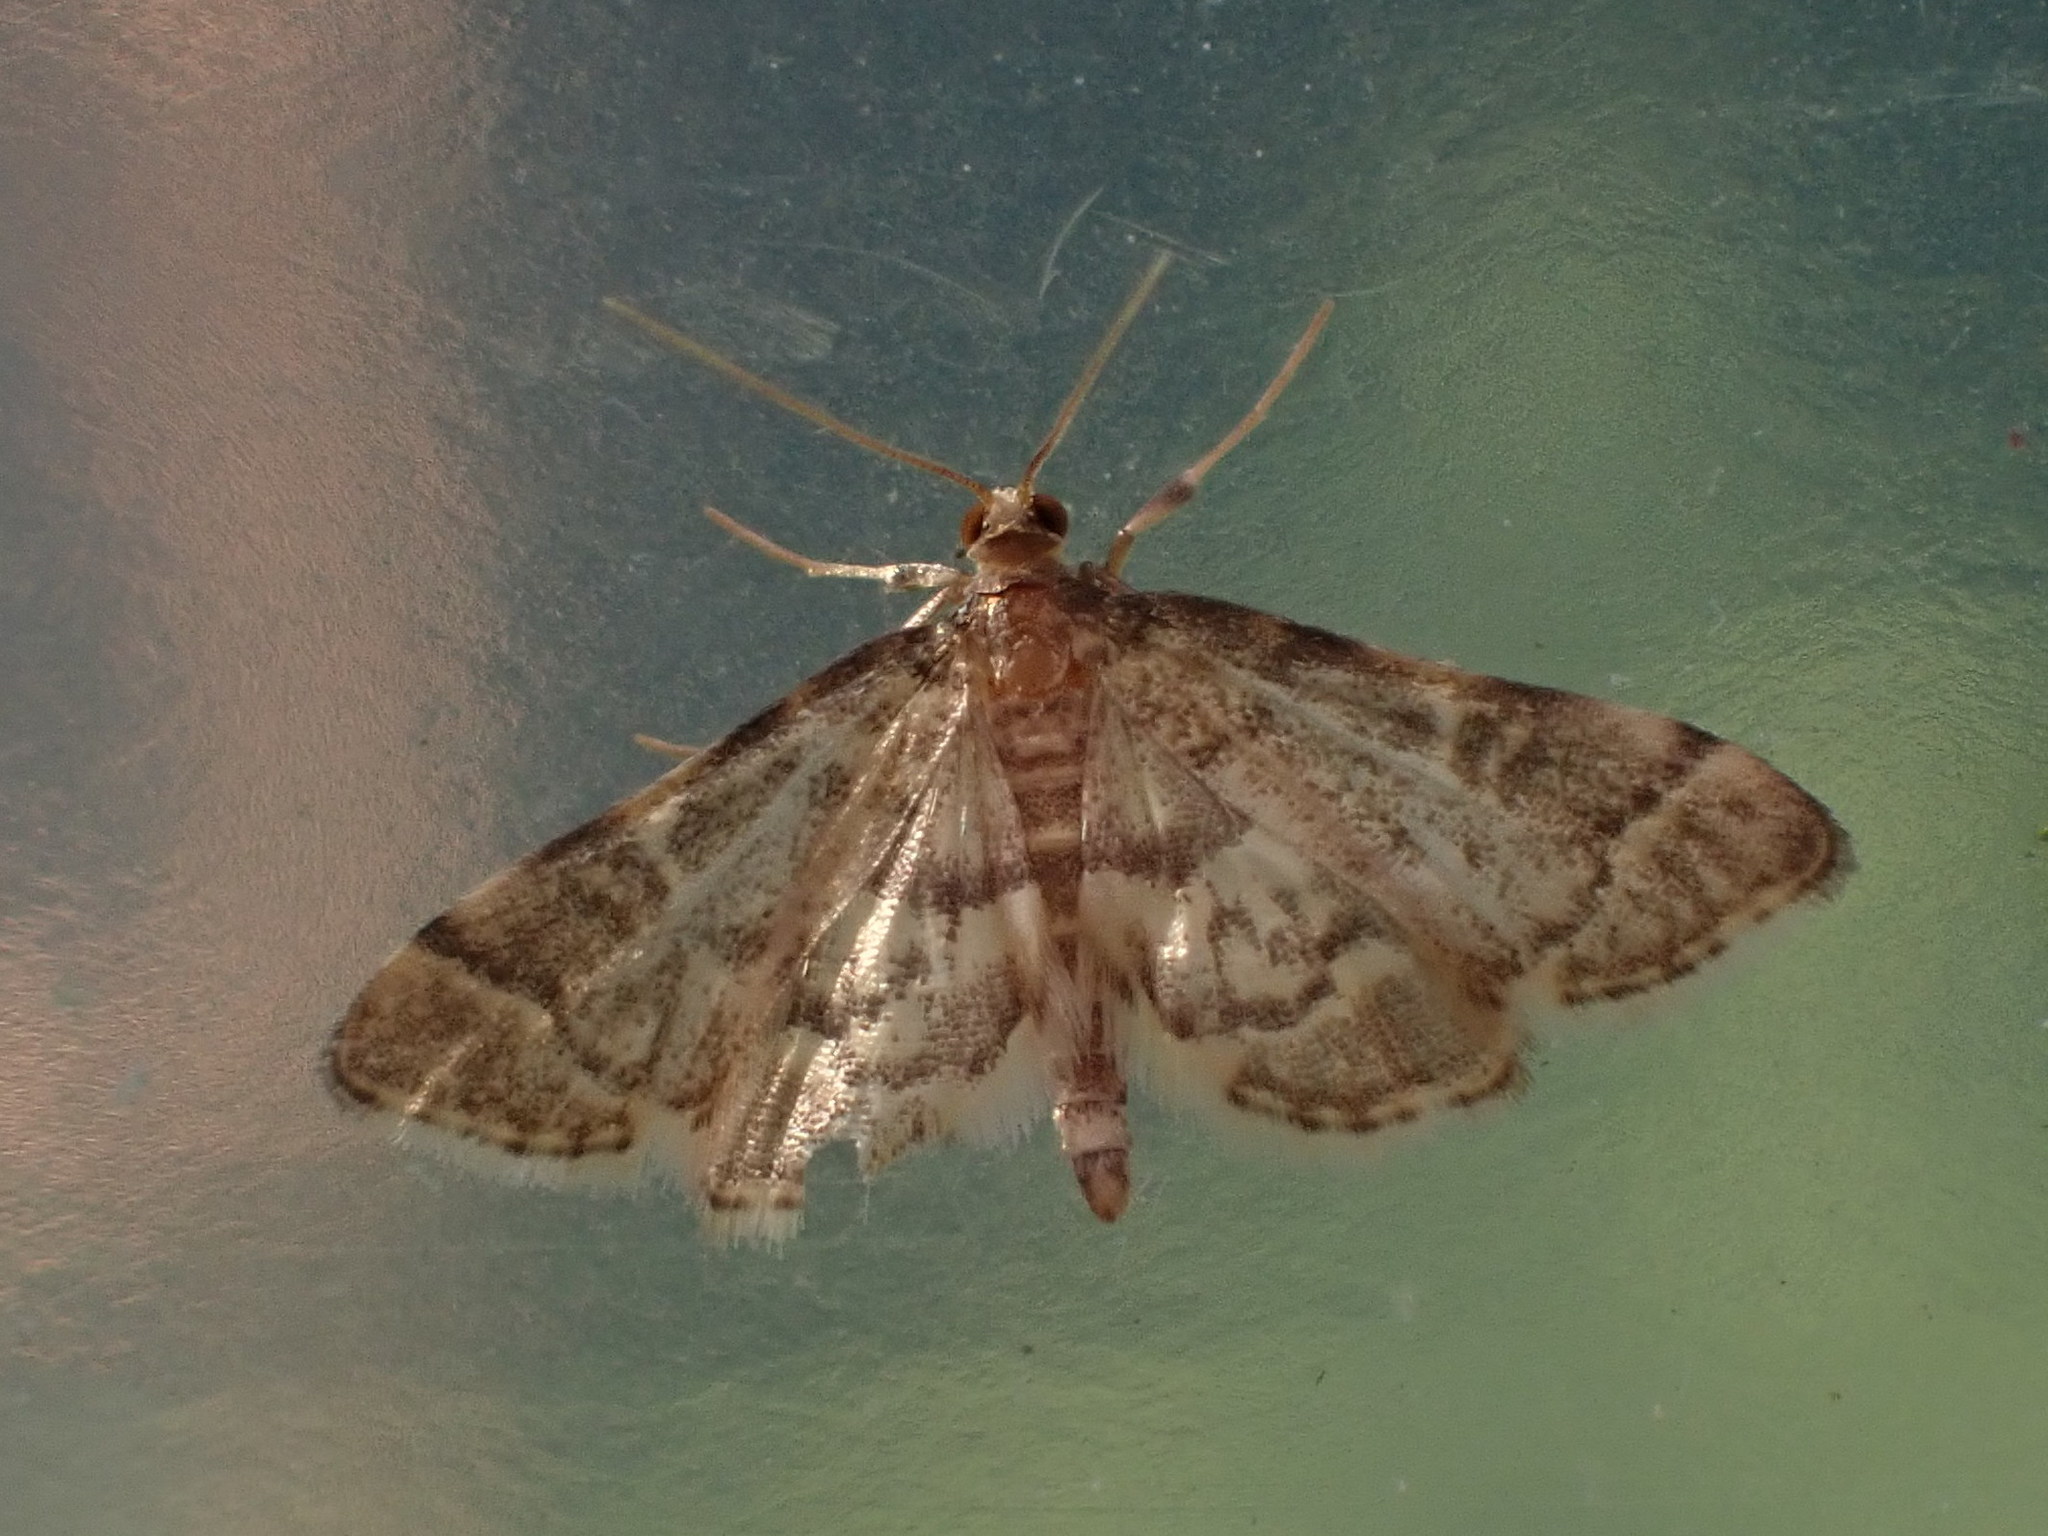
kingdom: Animalia
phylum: Arthropoda
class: Insecta
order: Lepidoptera
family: Crambidae
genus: Anageshna
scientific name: Anageshna primordialis
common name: Yellow-spotted webworm moth
